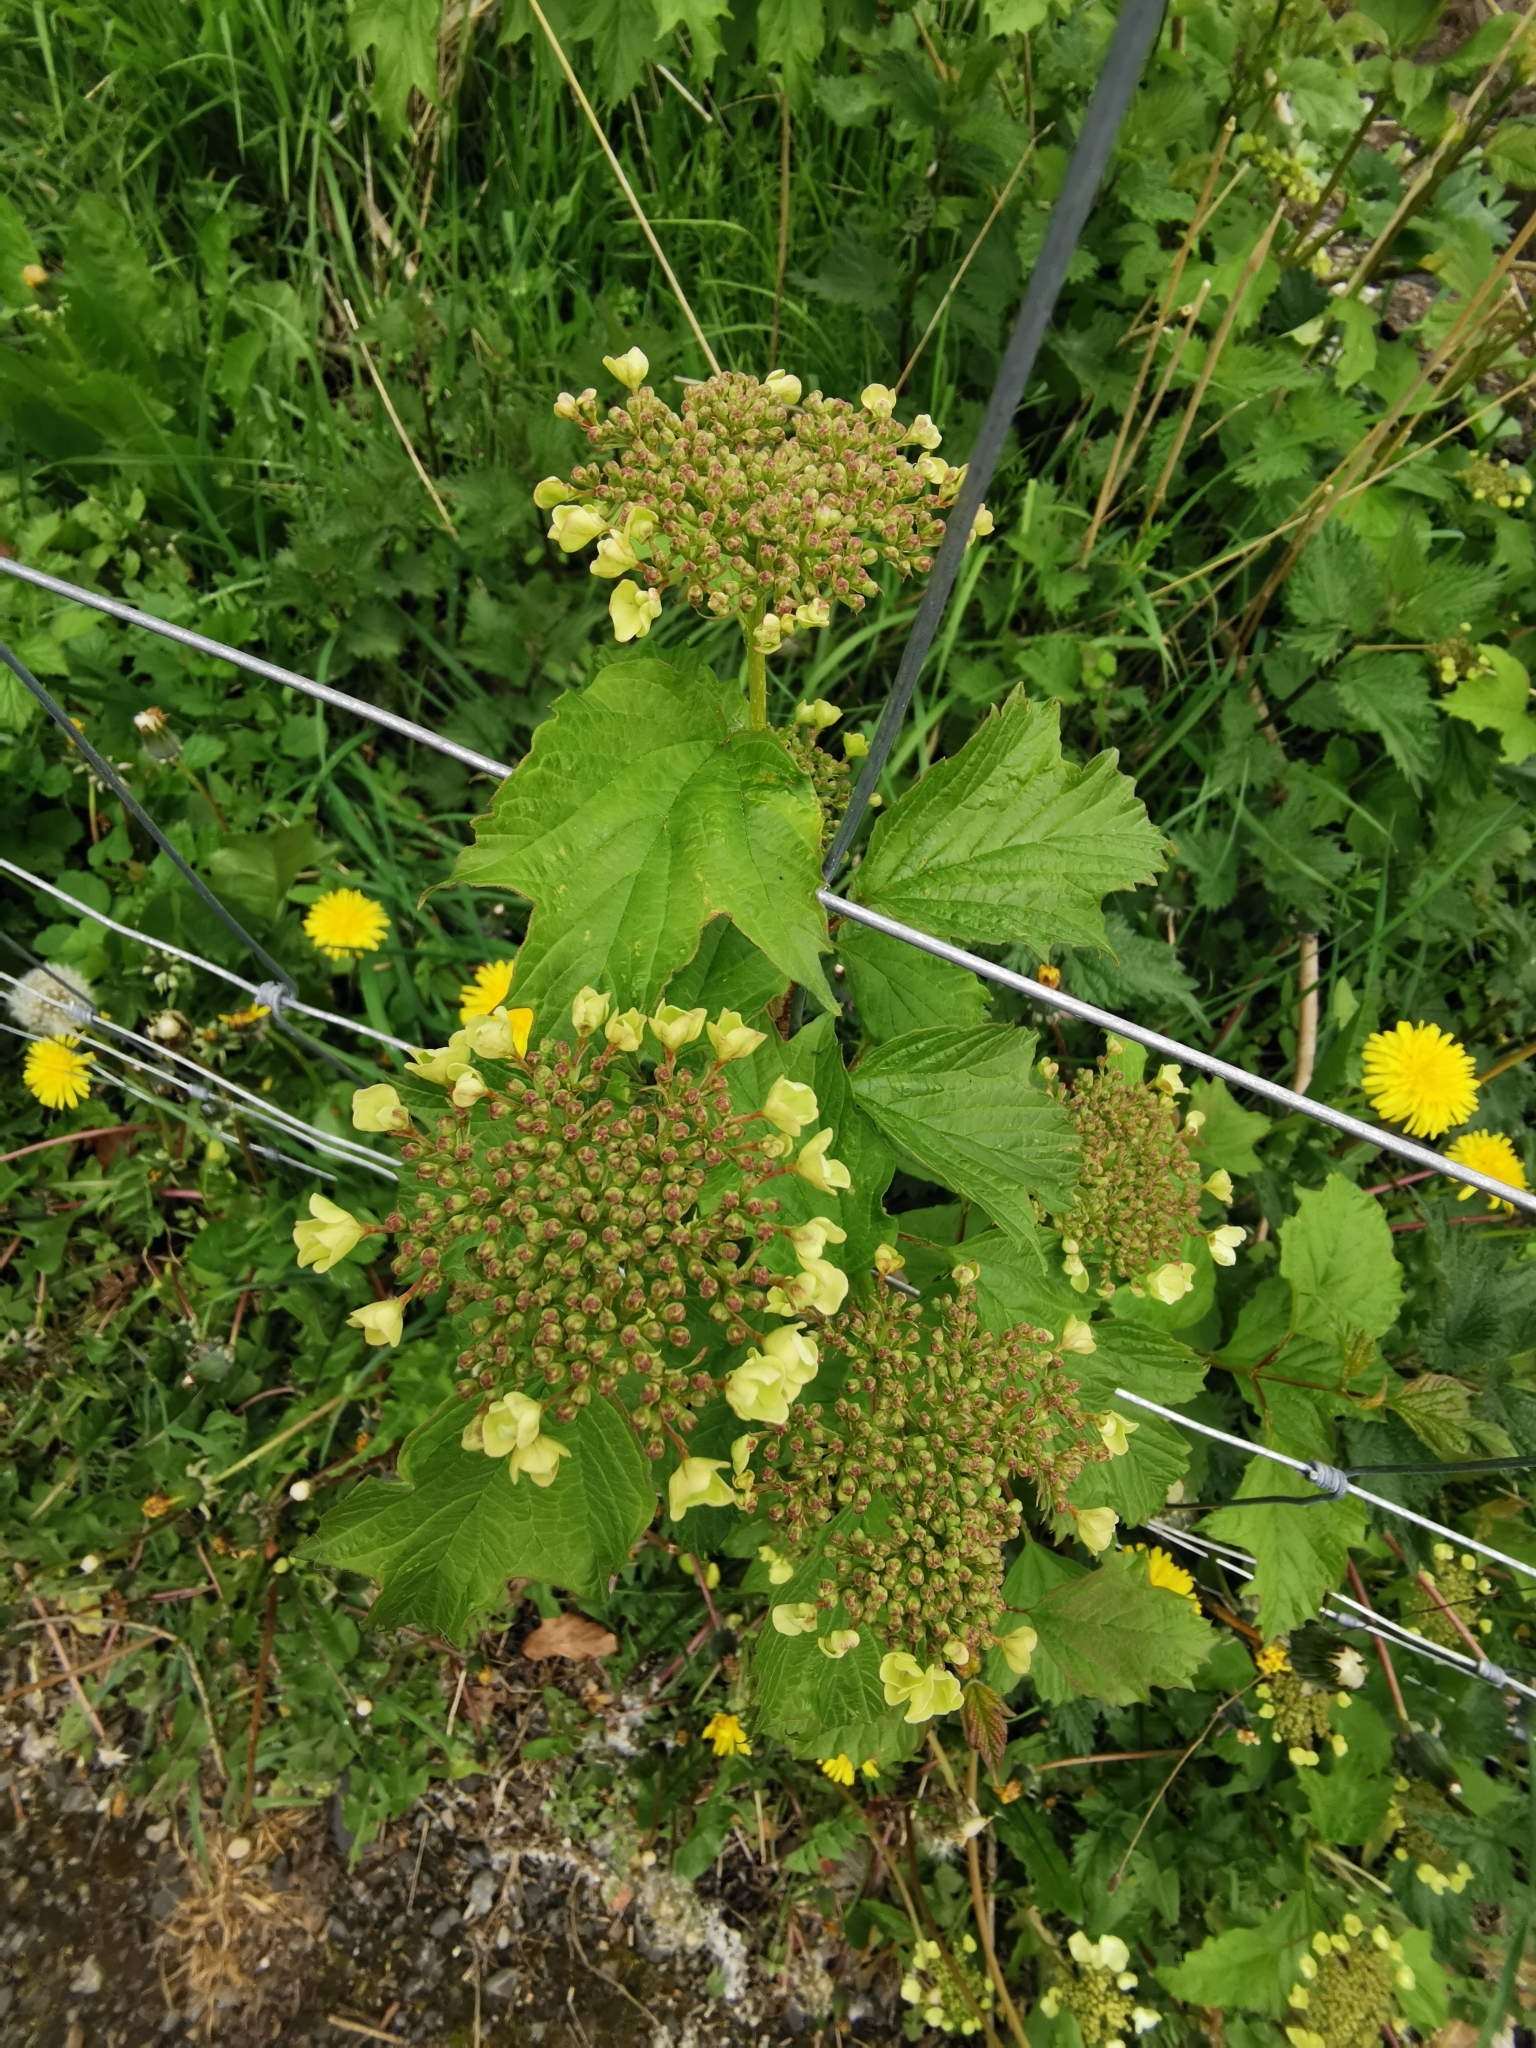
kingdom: Plantae
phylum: Tracheophyta
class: Magnoliopsida
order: Dipsacales
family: Viburnaceae
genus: Viburnum
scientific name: Viburnum opulus
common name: Guelder-rose
